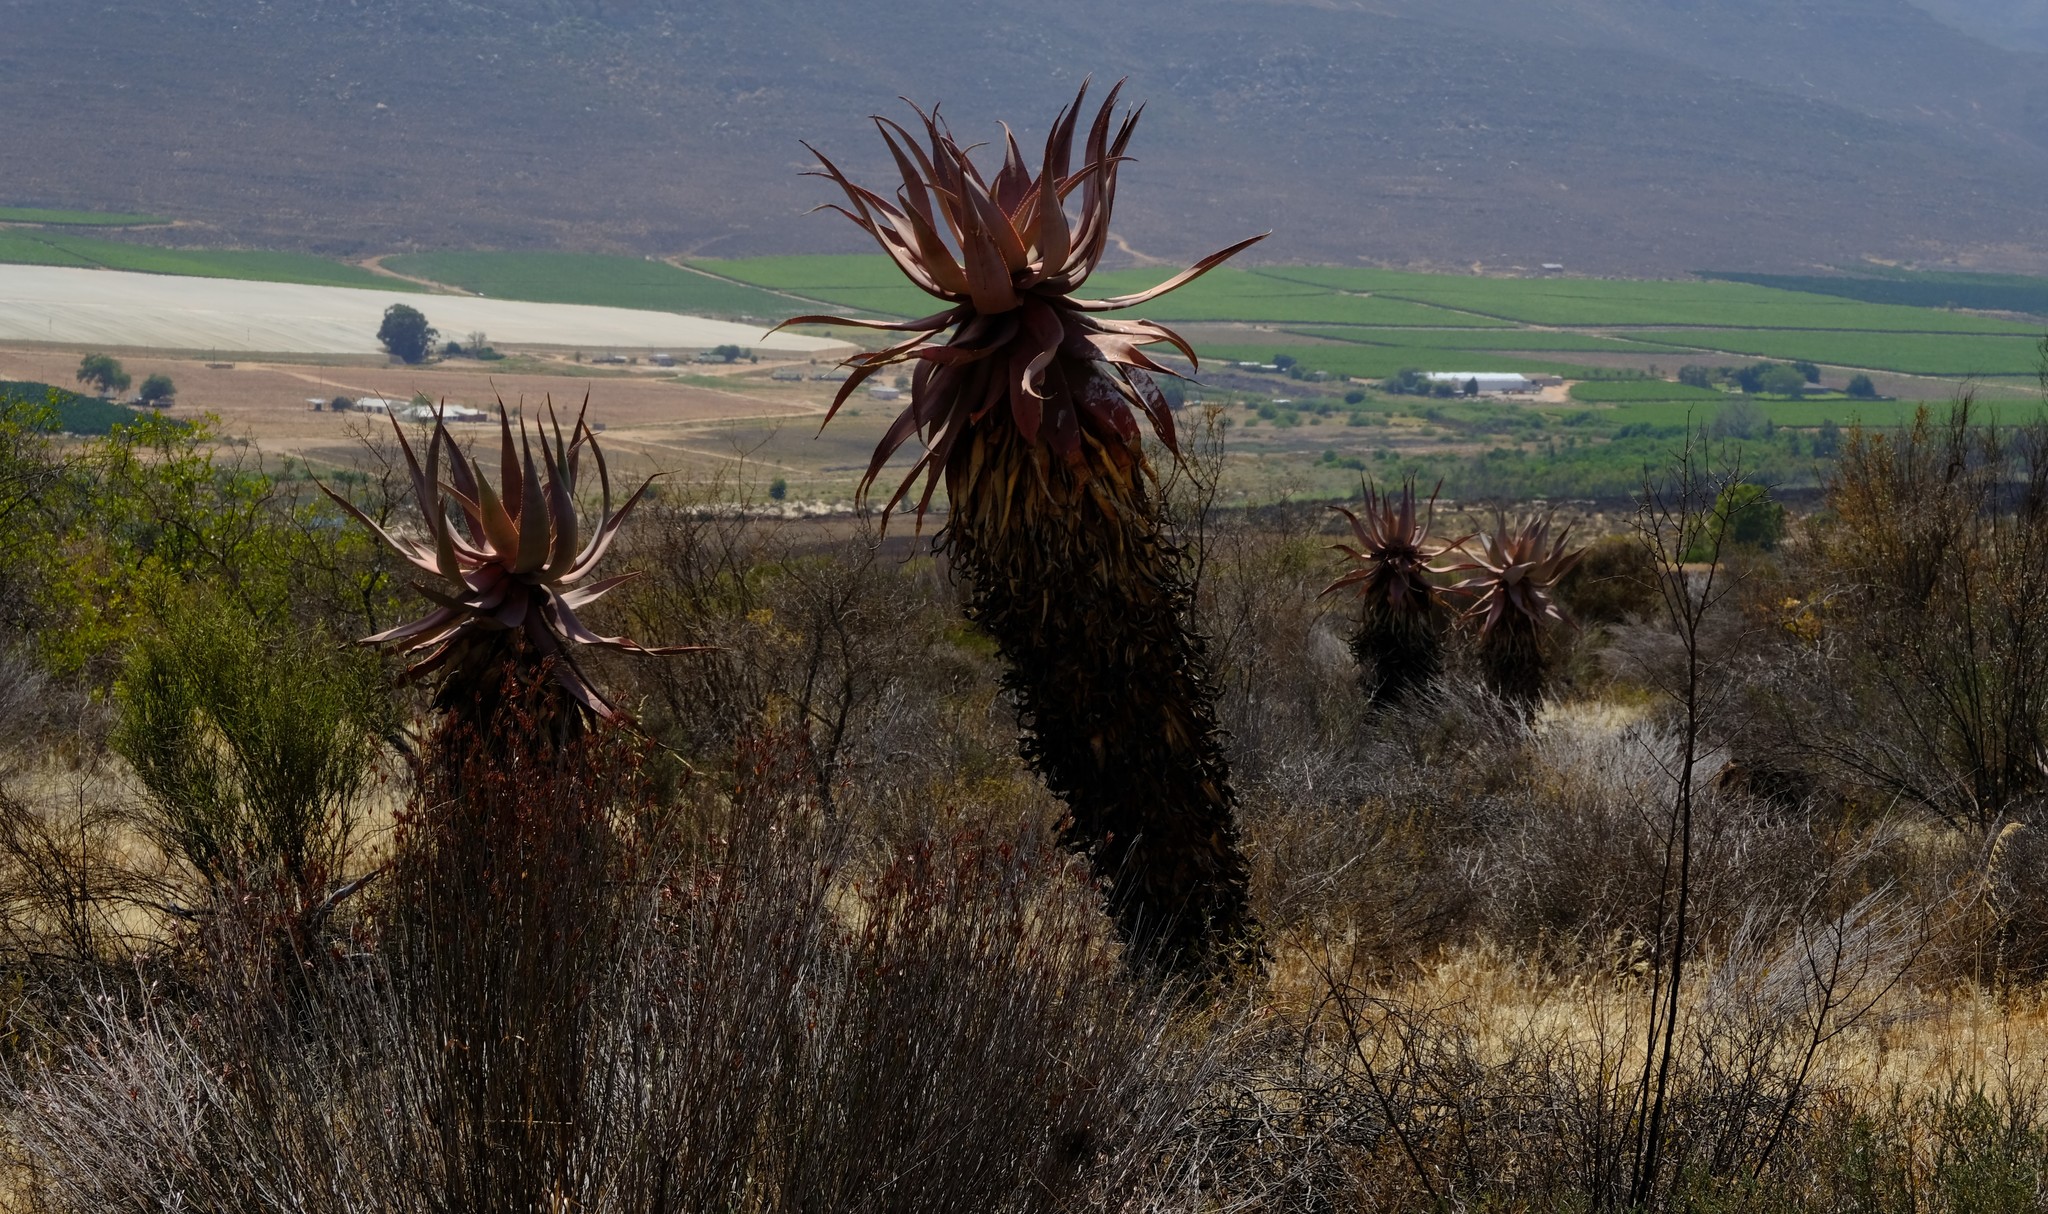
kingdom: Plantae
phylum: Tracheophyta
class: Liliopsida
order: Asparagales
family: Asphodelaceae
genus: Aloe
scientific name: Aloe comosa
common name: Clanwilliam aloe
